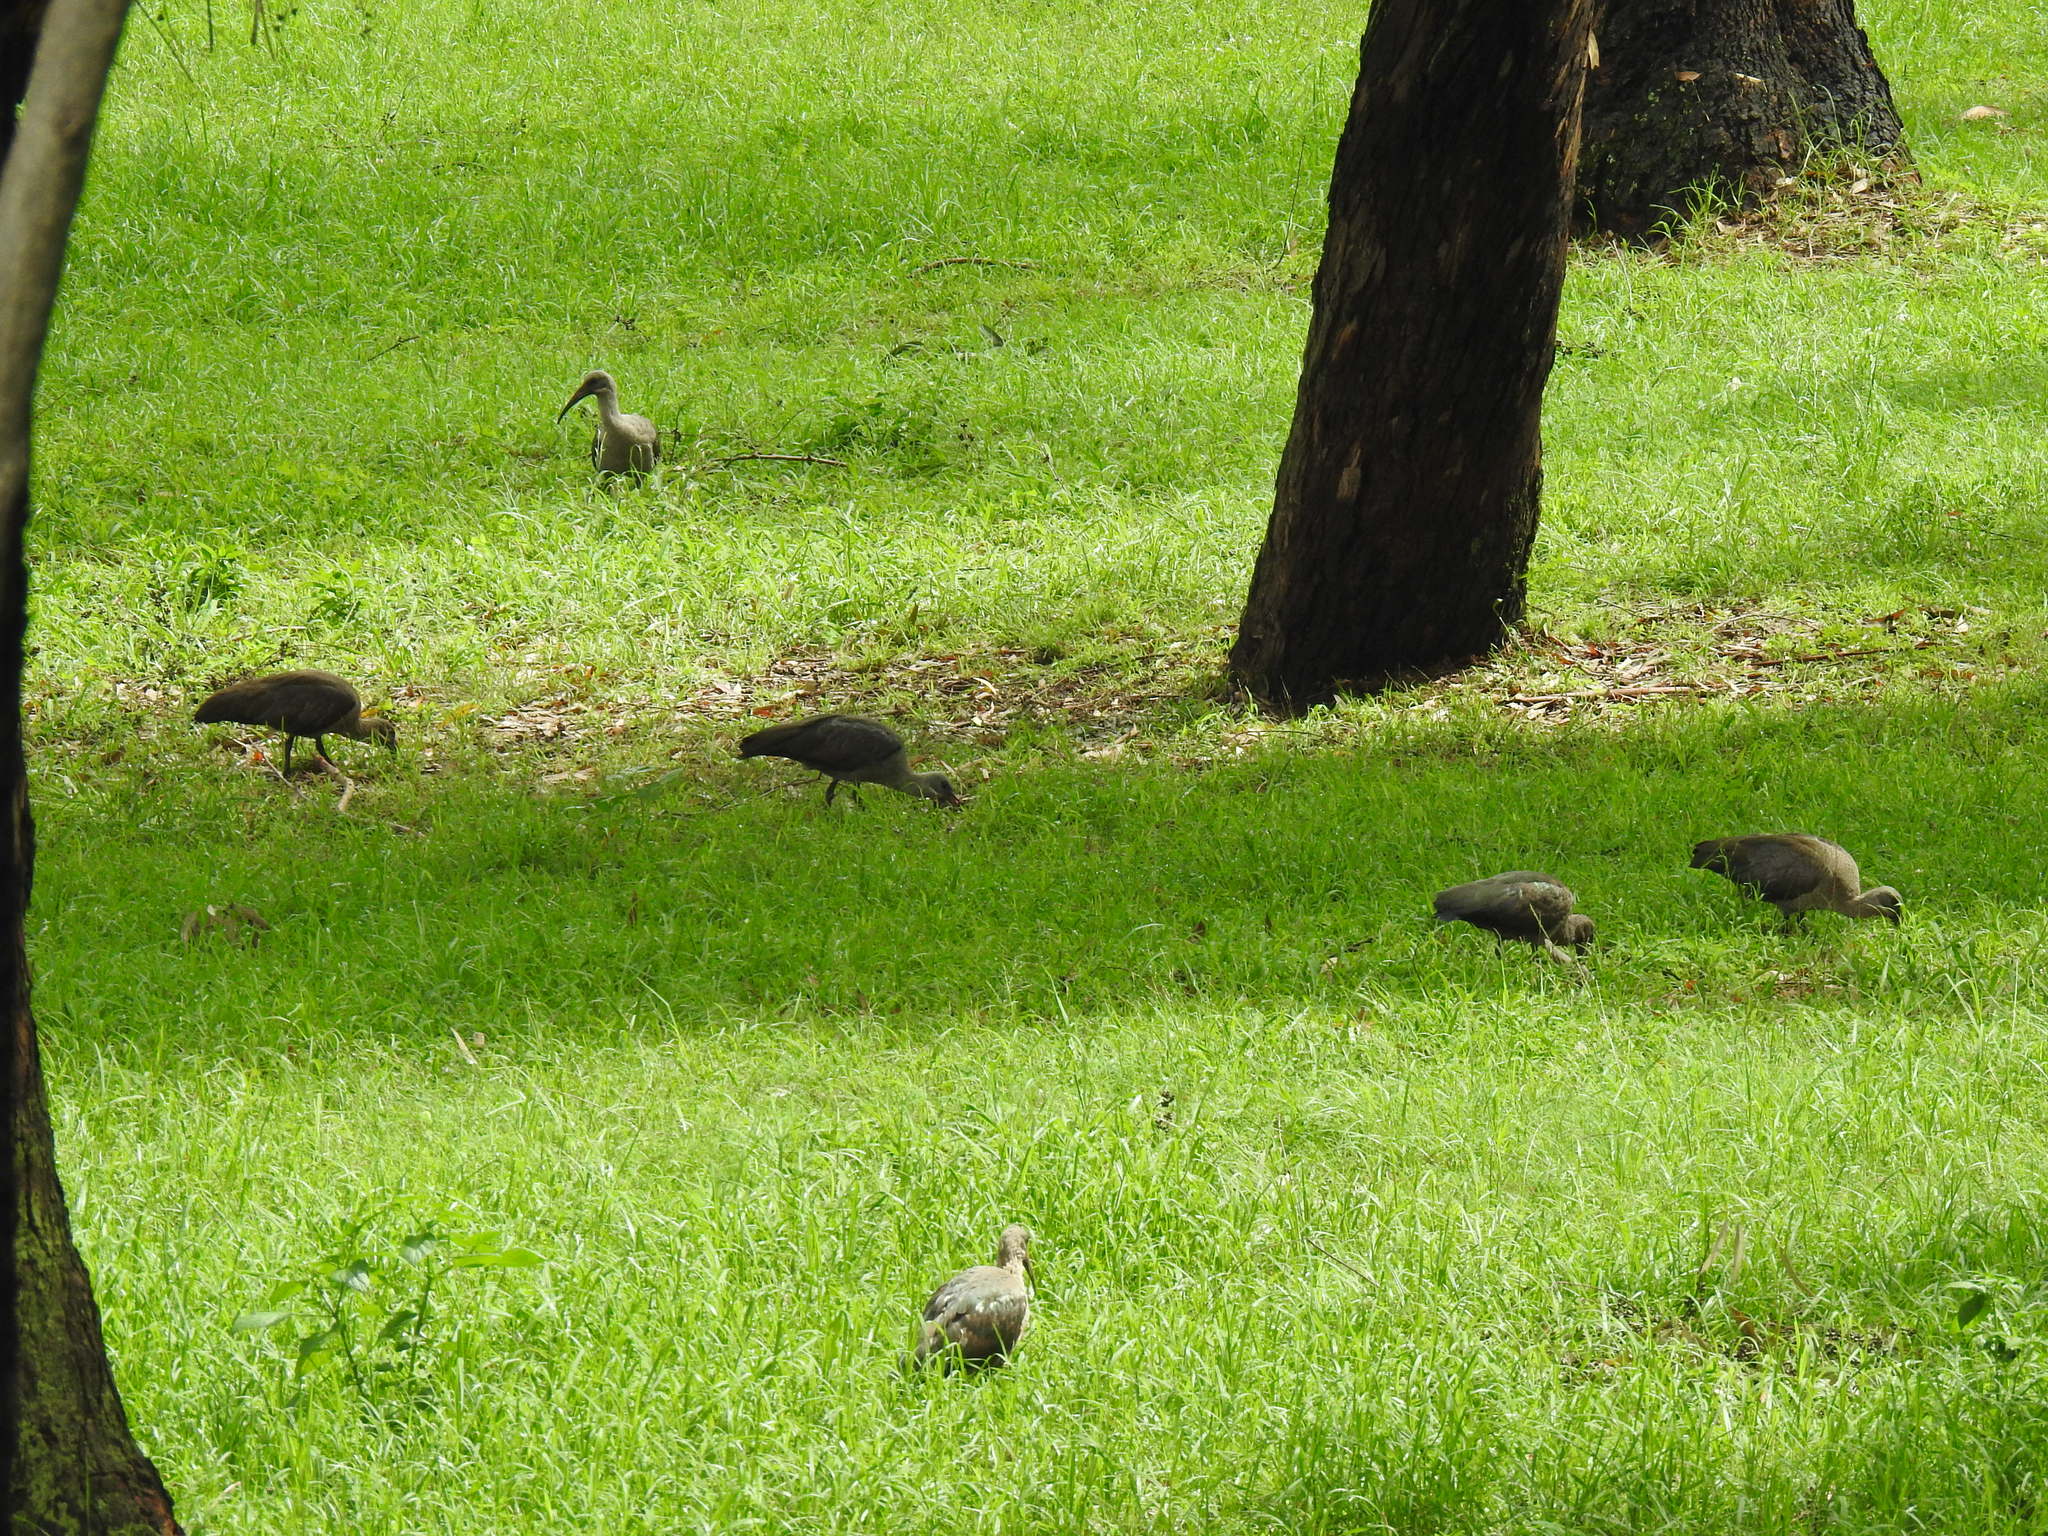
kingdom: Animalia
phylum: Chordata
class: Aves
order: Pelecaniformes
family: Threskiornithidae
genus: Bostrychia
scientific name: Bostrychia hagedash
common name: Hadada ibis
